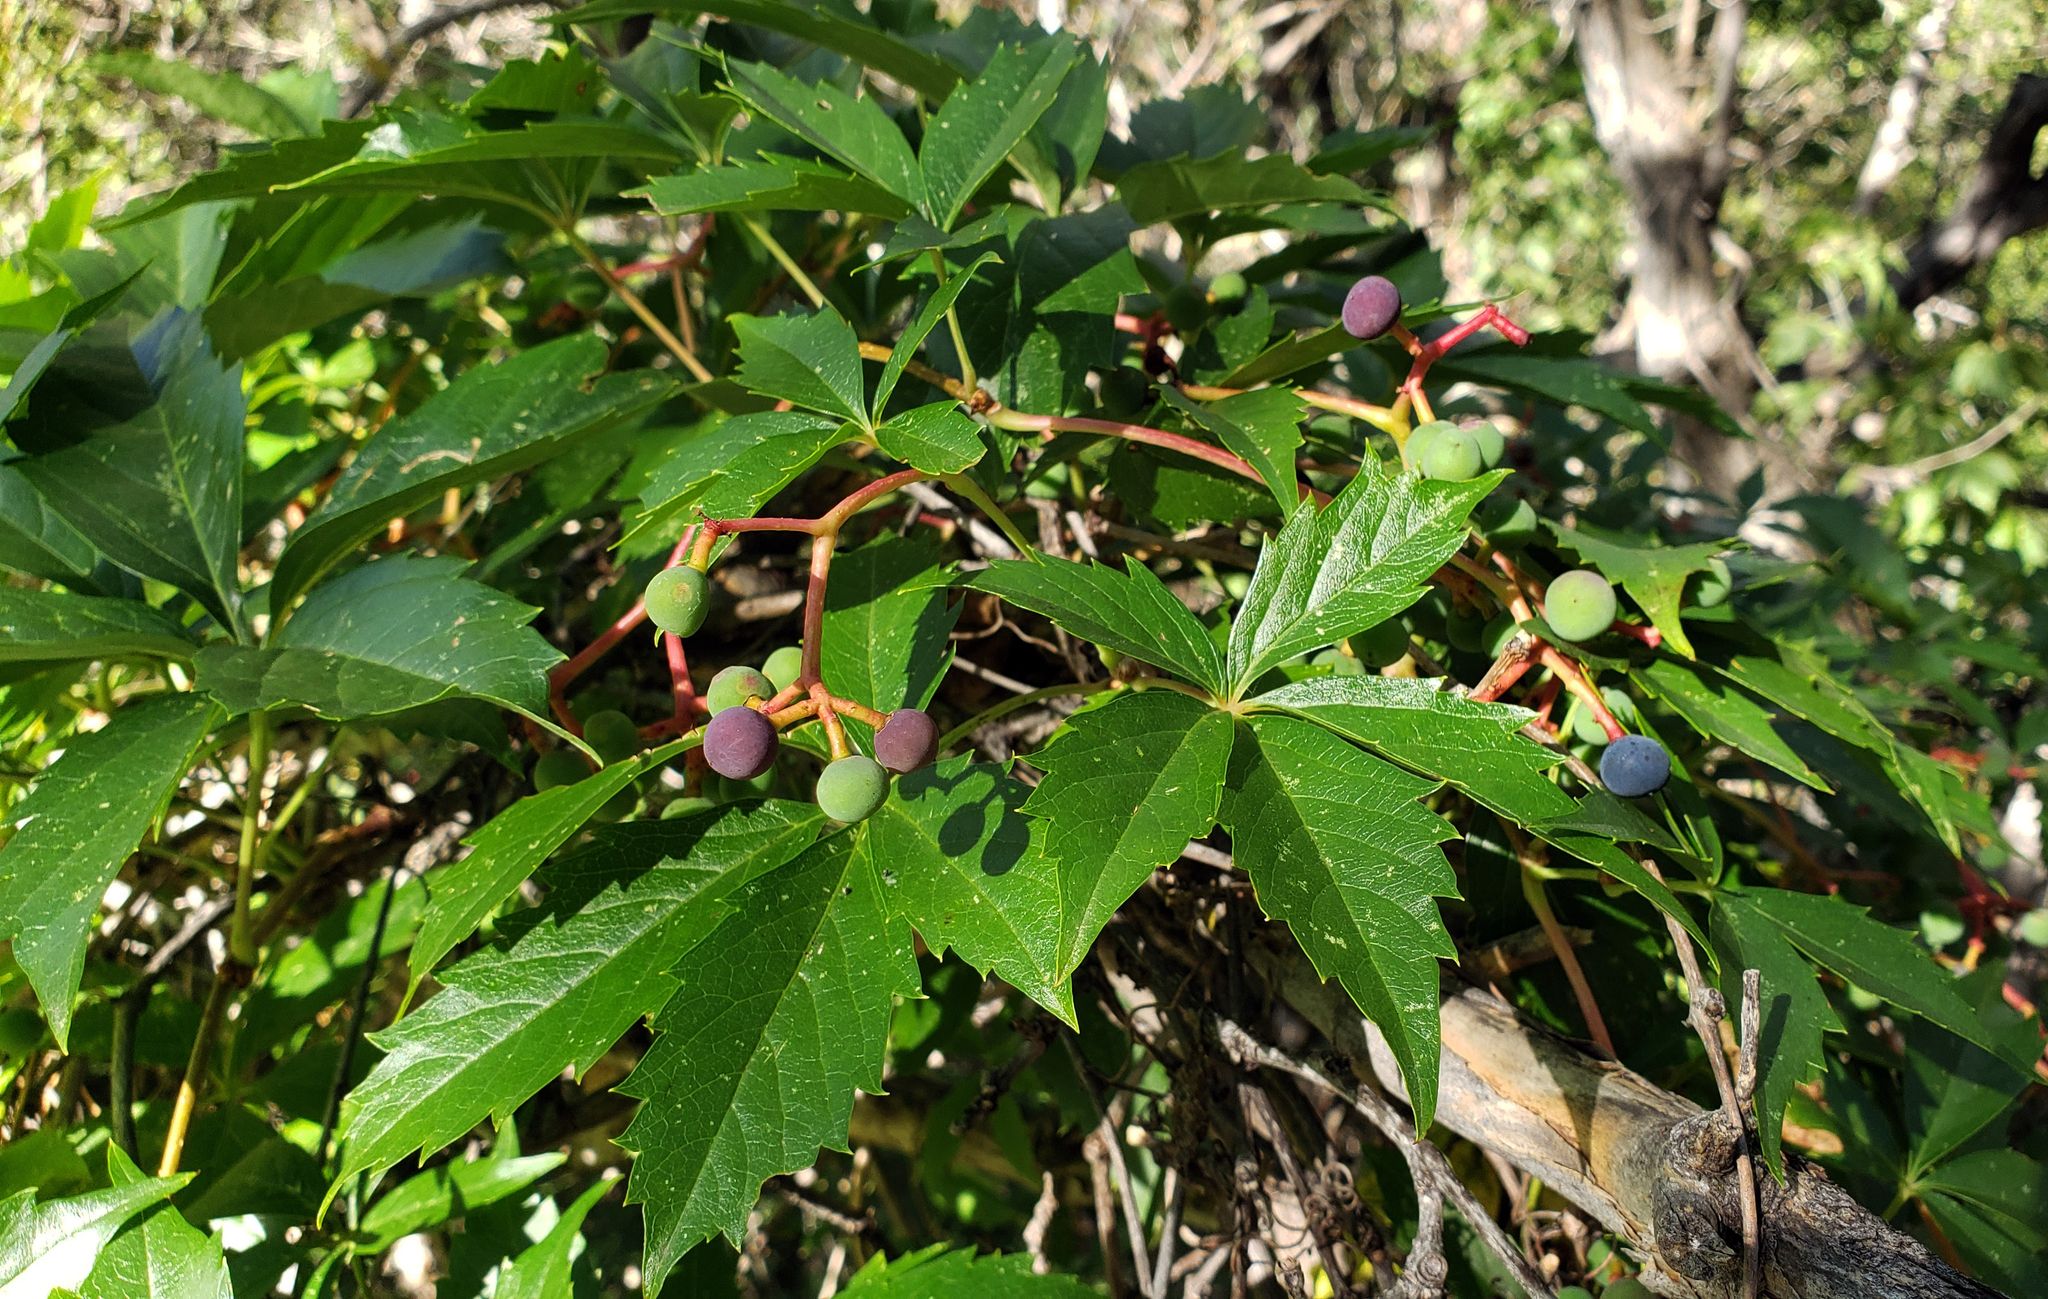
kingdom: Plantae
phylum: Tracheophyta
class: Magnoliopsida
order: Vitales
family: Vitaceae
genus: Parthenocissus
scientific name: Parthenocissus quinquefolia
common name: Virginia-creeper
